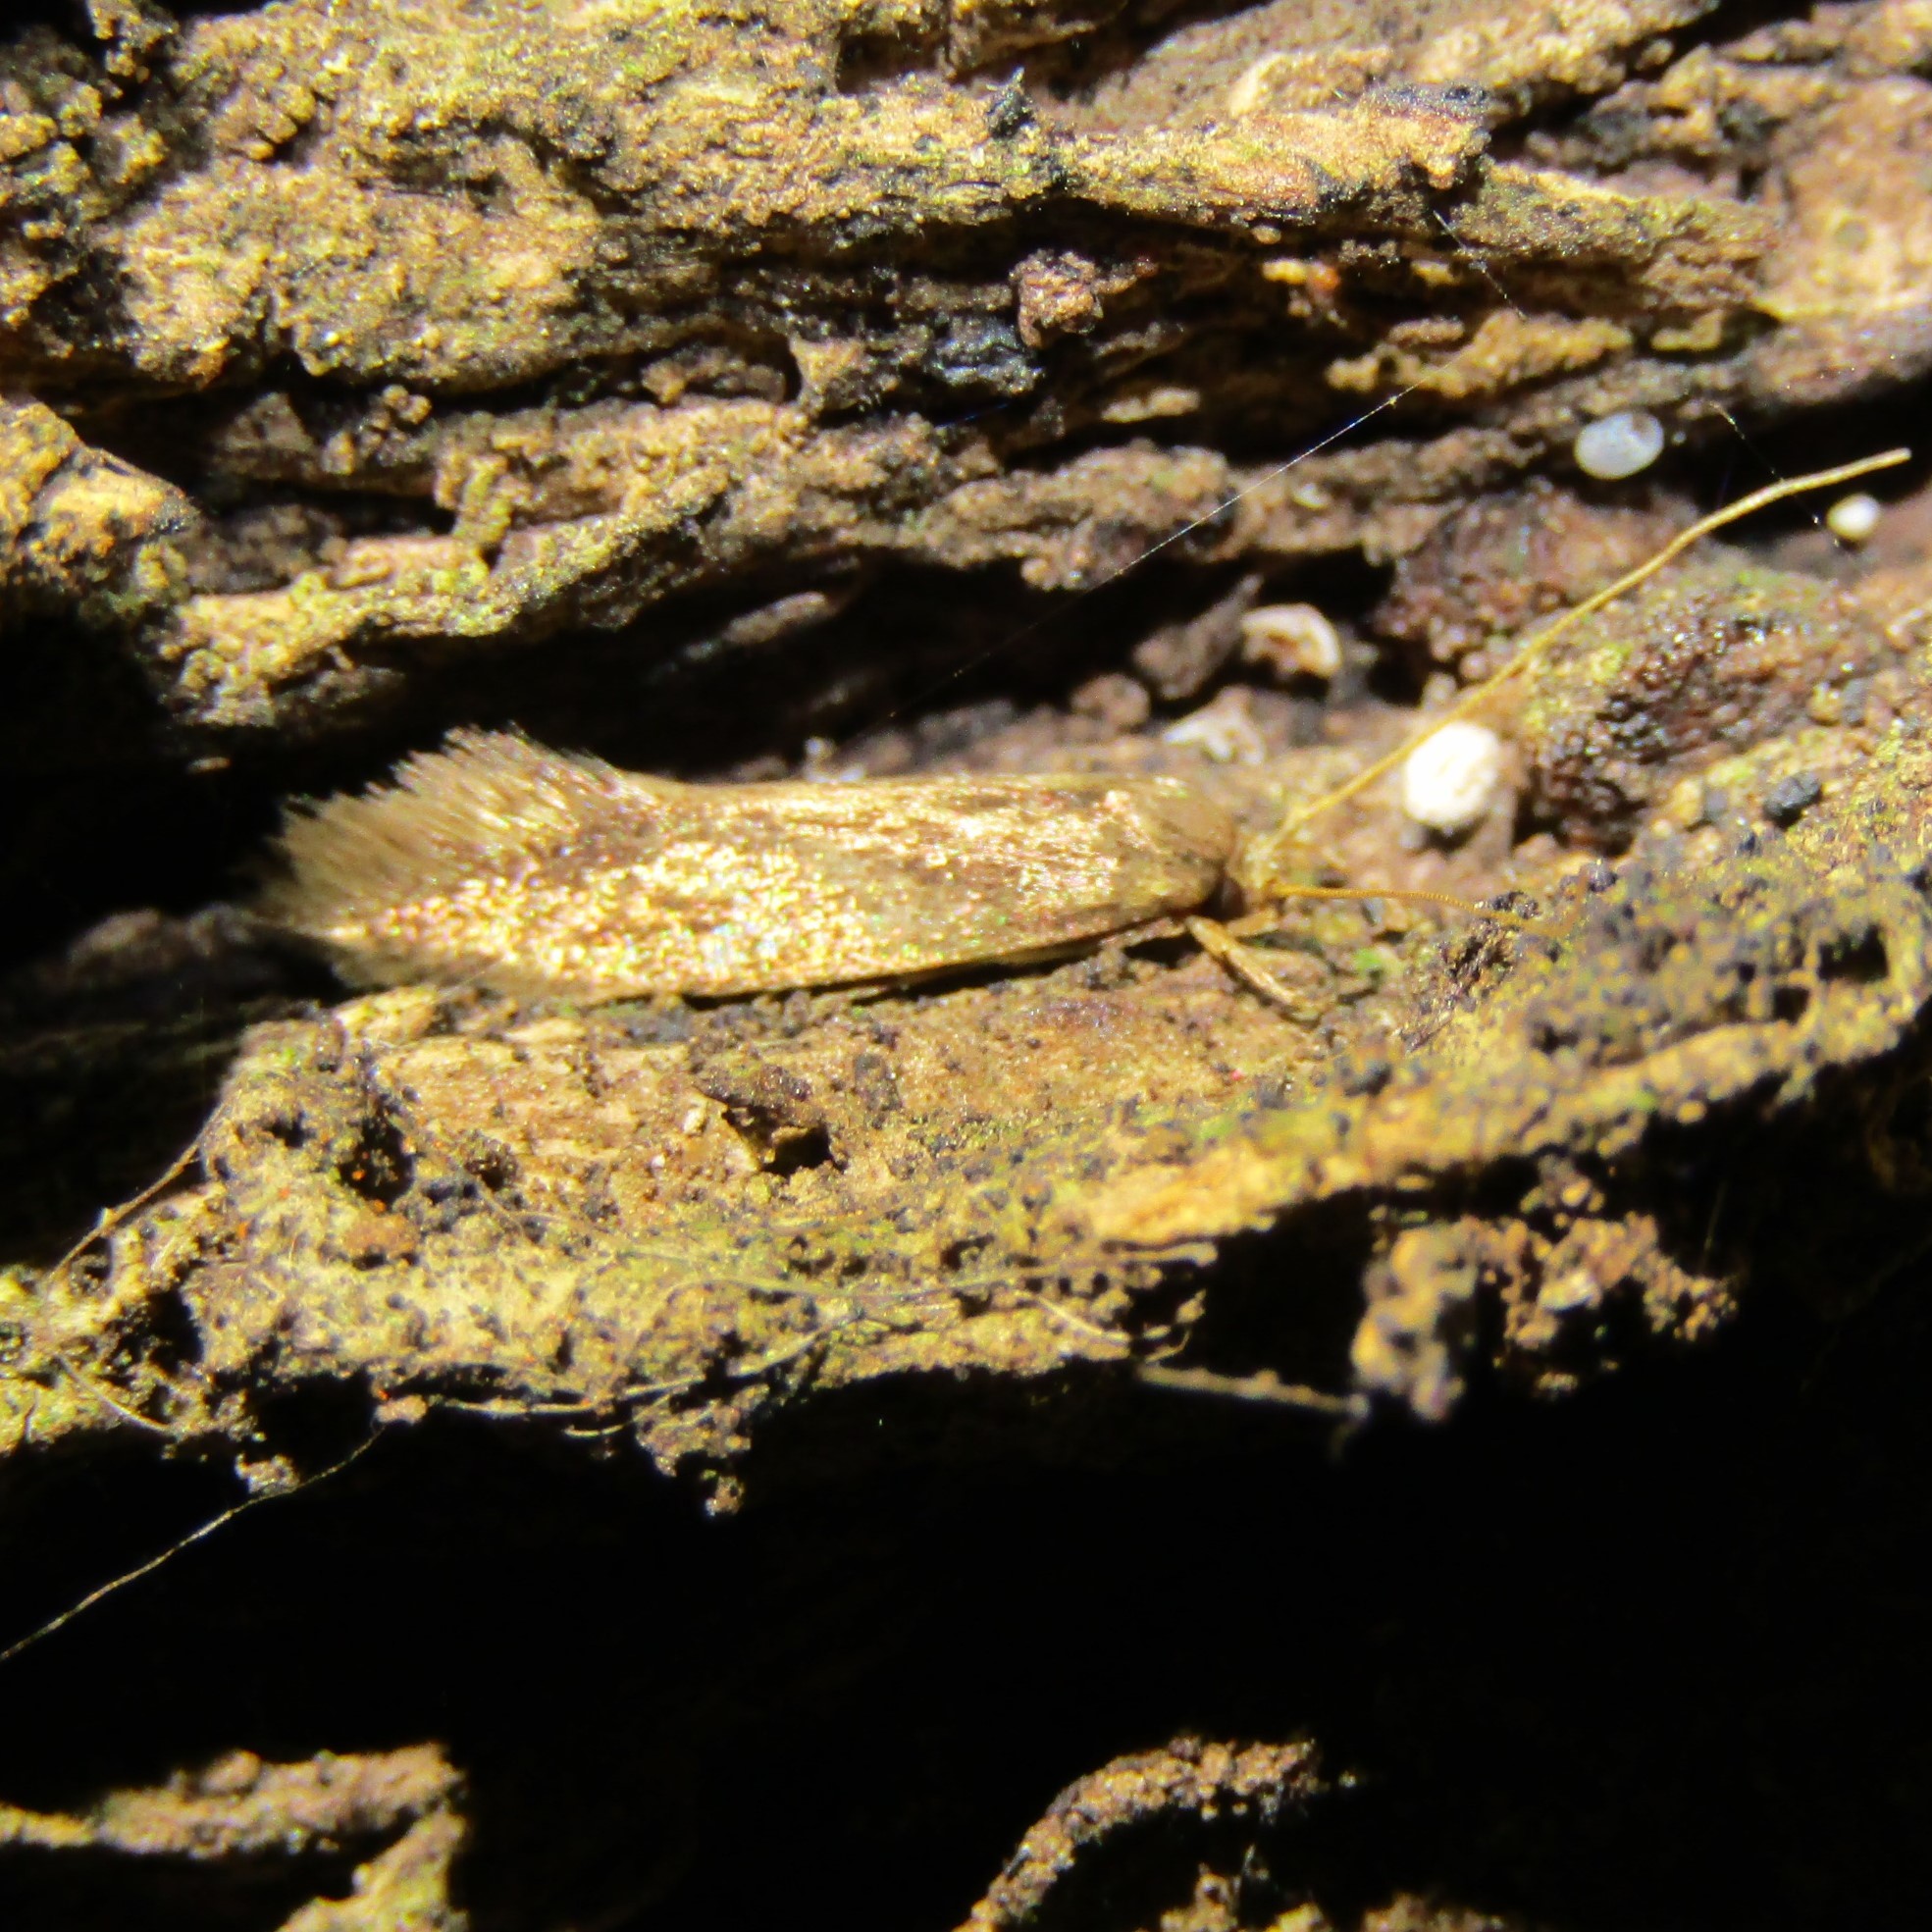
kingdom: Animalia
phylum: Arthropoda
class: Insecta
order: Lepidoptera
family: Tineidae
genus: Opogona
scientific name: Opogona omoscopa
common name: Moth
